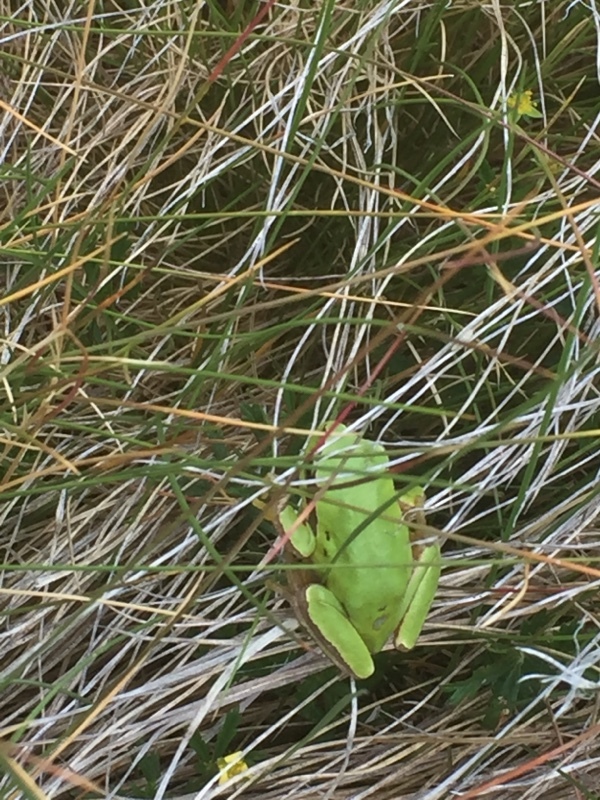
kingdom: Animalia
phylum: Chordata
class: Amphibia
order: Anura
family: Hylidae
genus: Hyla
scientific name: Hyla molleri
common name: Iberian tree frog
